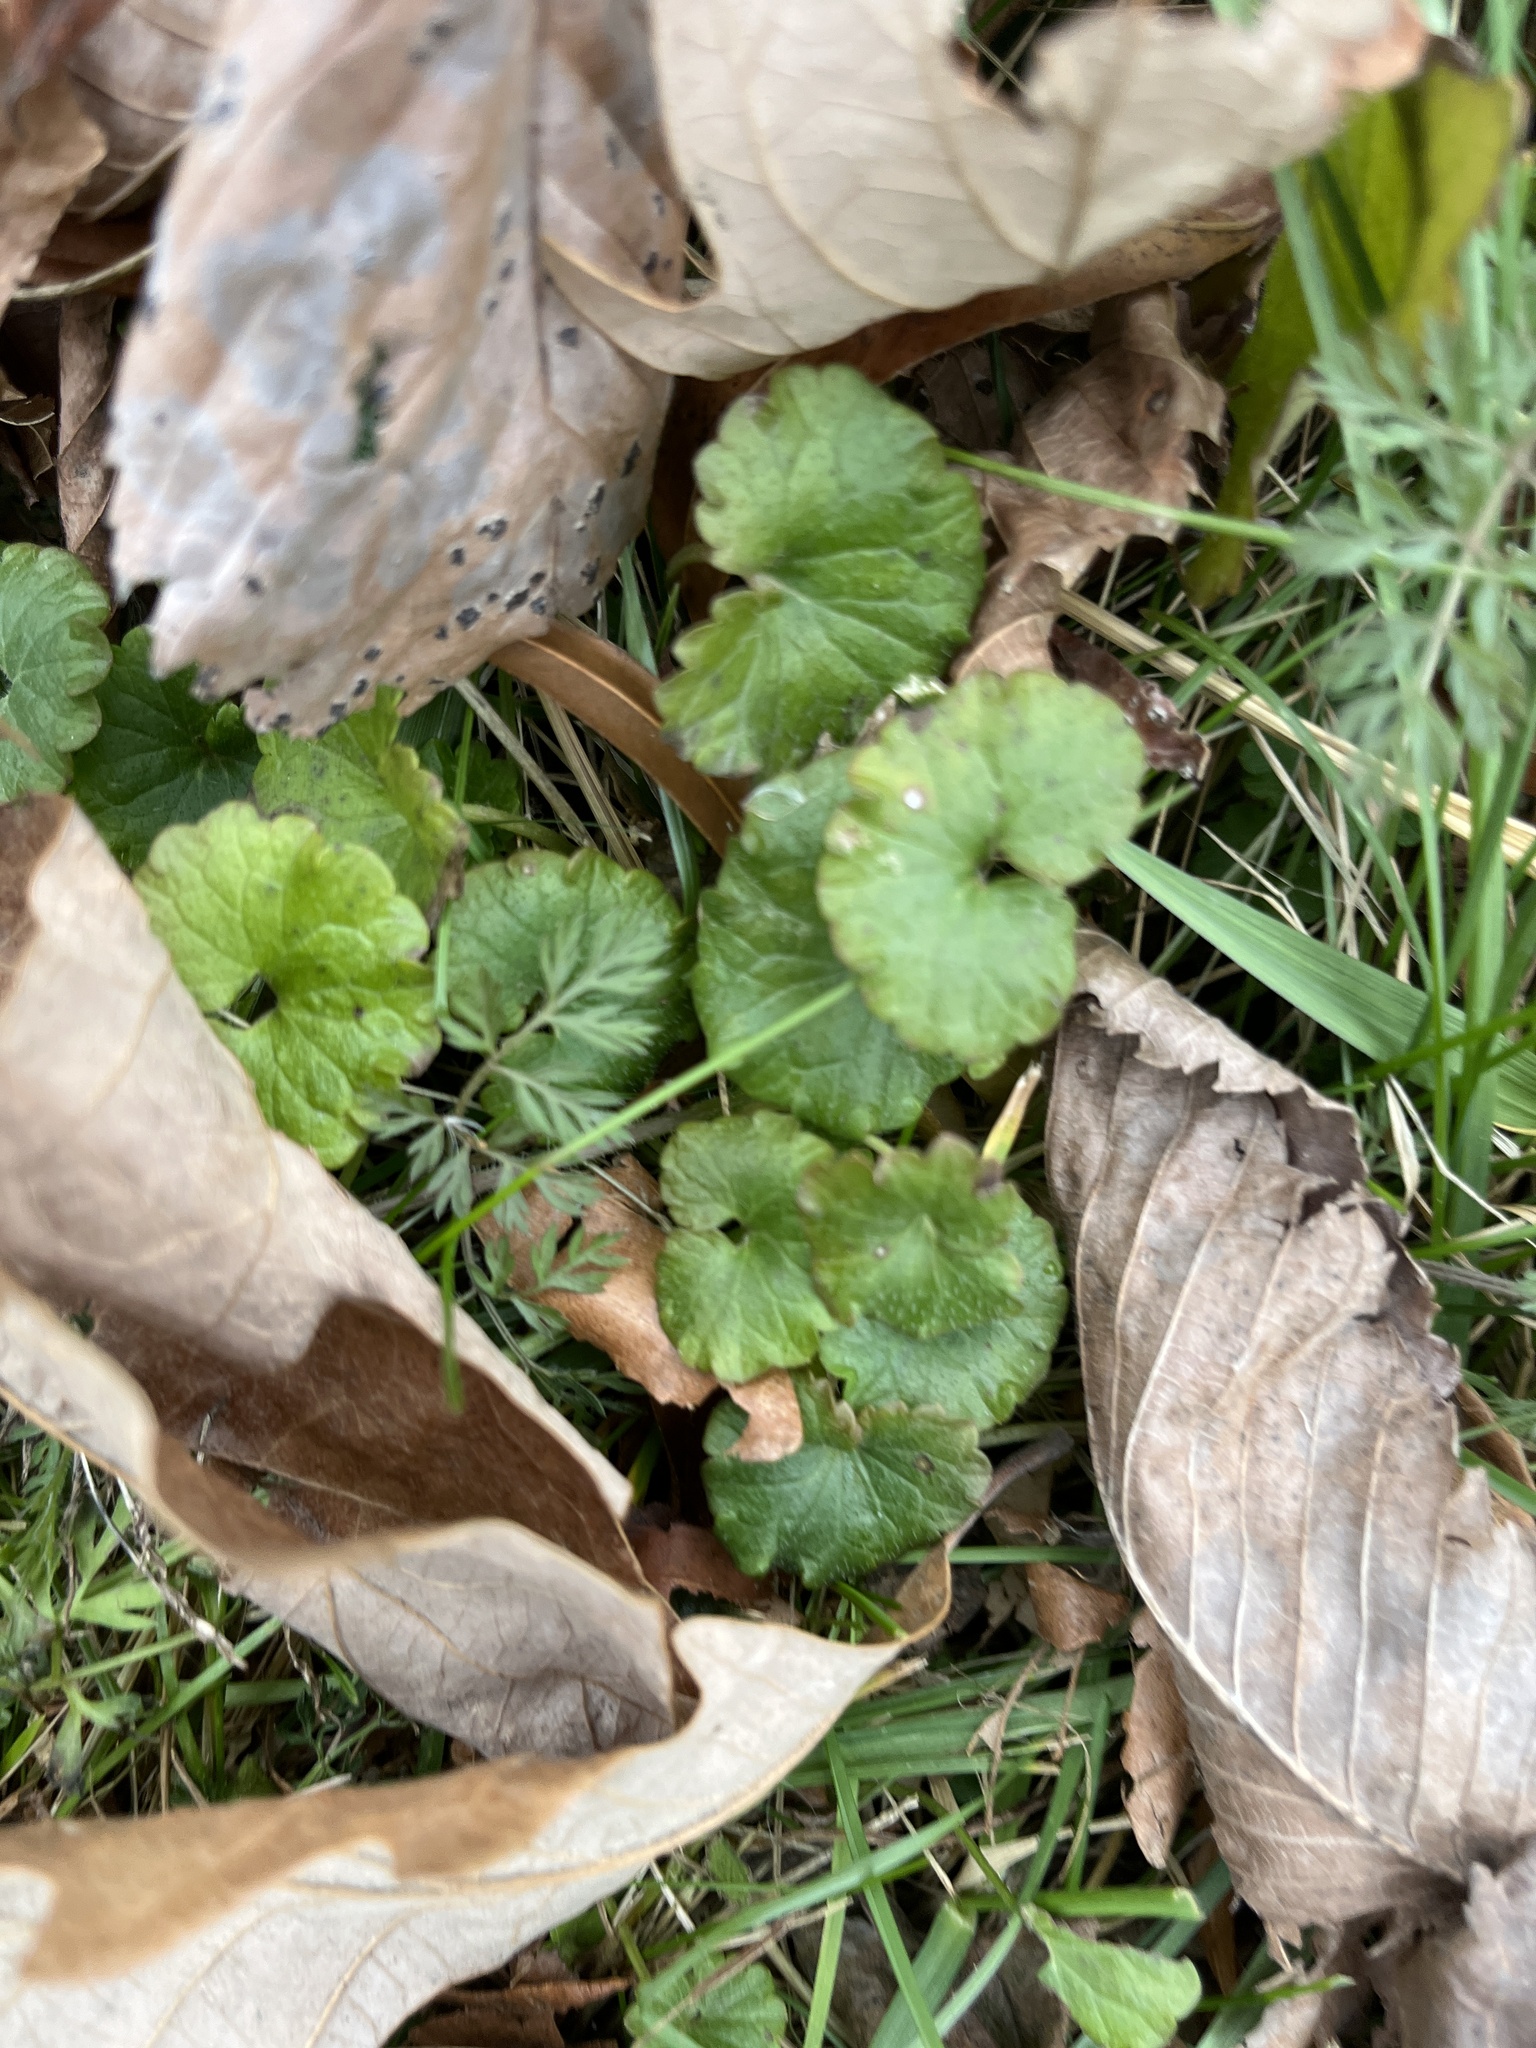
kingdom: Plantae
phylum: Tracheophyta
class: Magnoliopsida
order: Lamiales
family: Lamiaceae
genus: Glechoma
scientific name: Glechoma hederacea
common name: Ground ivy
